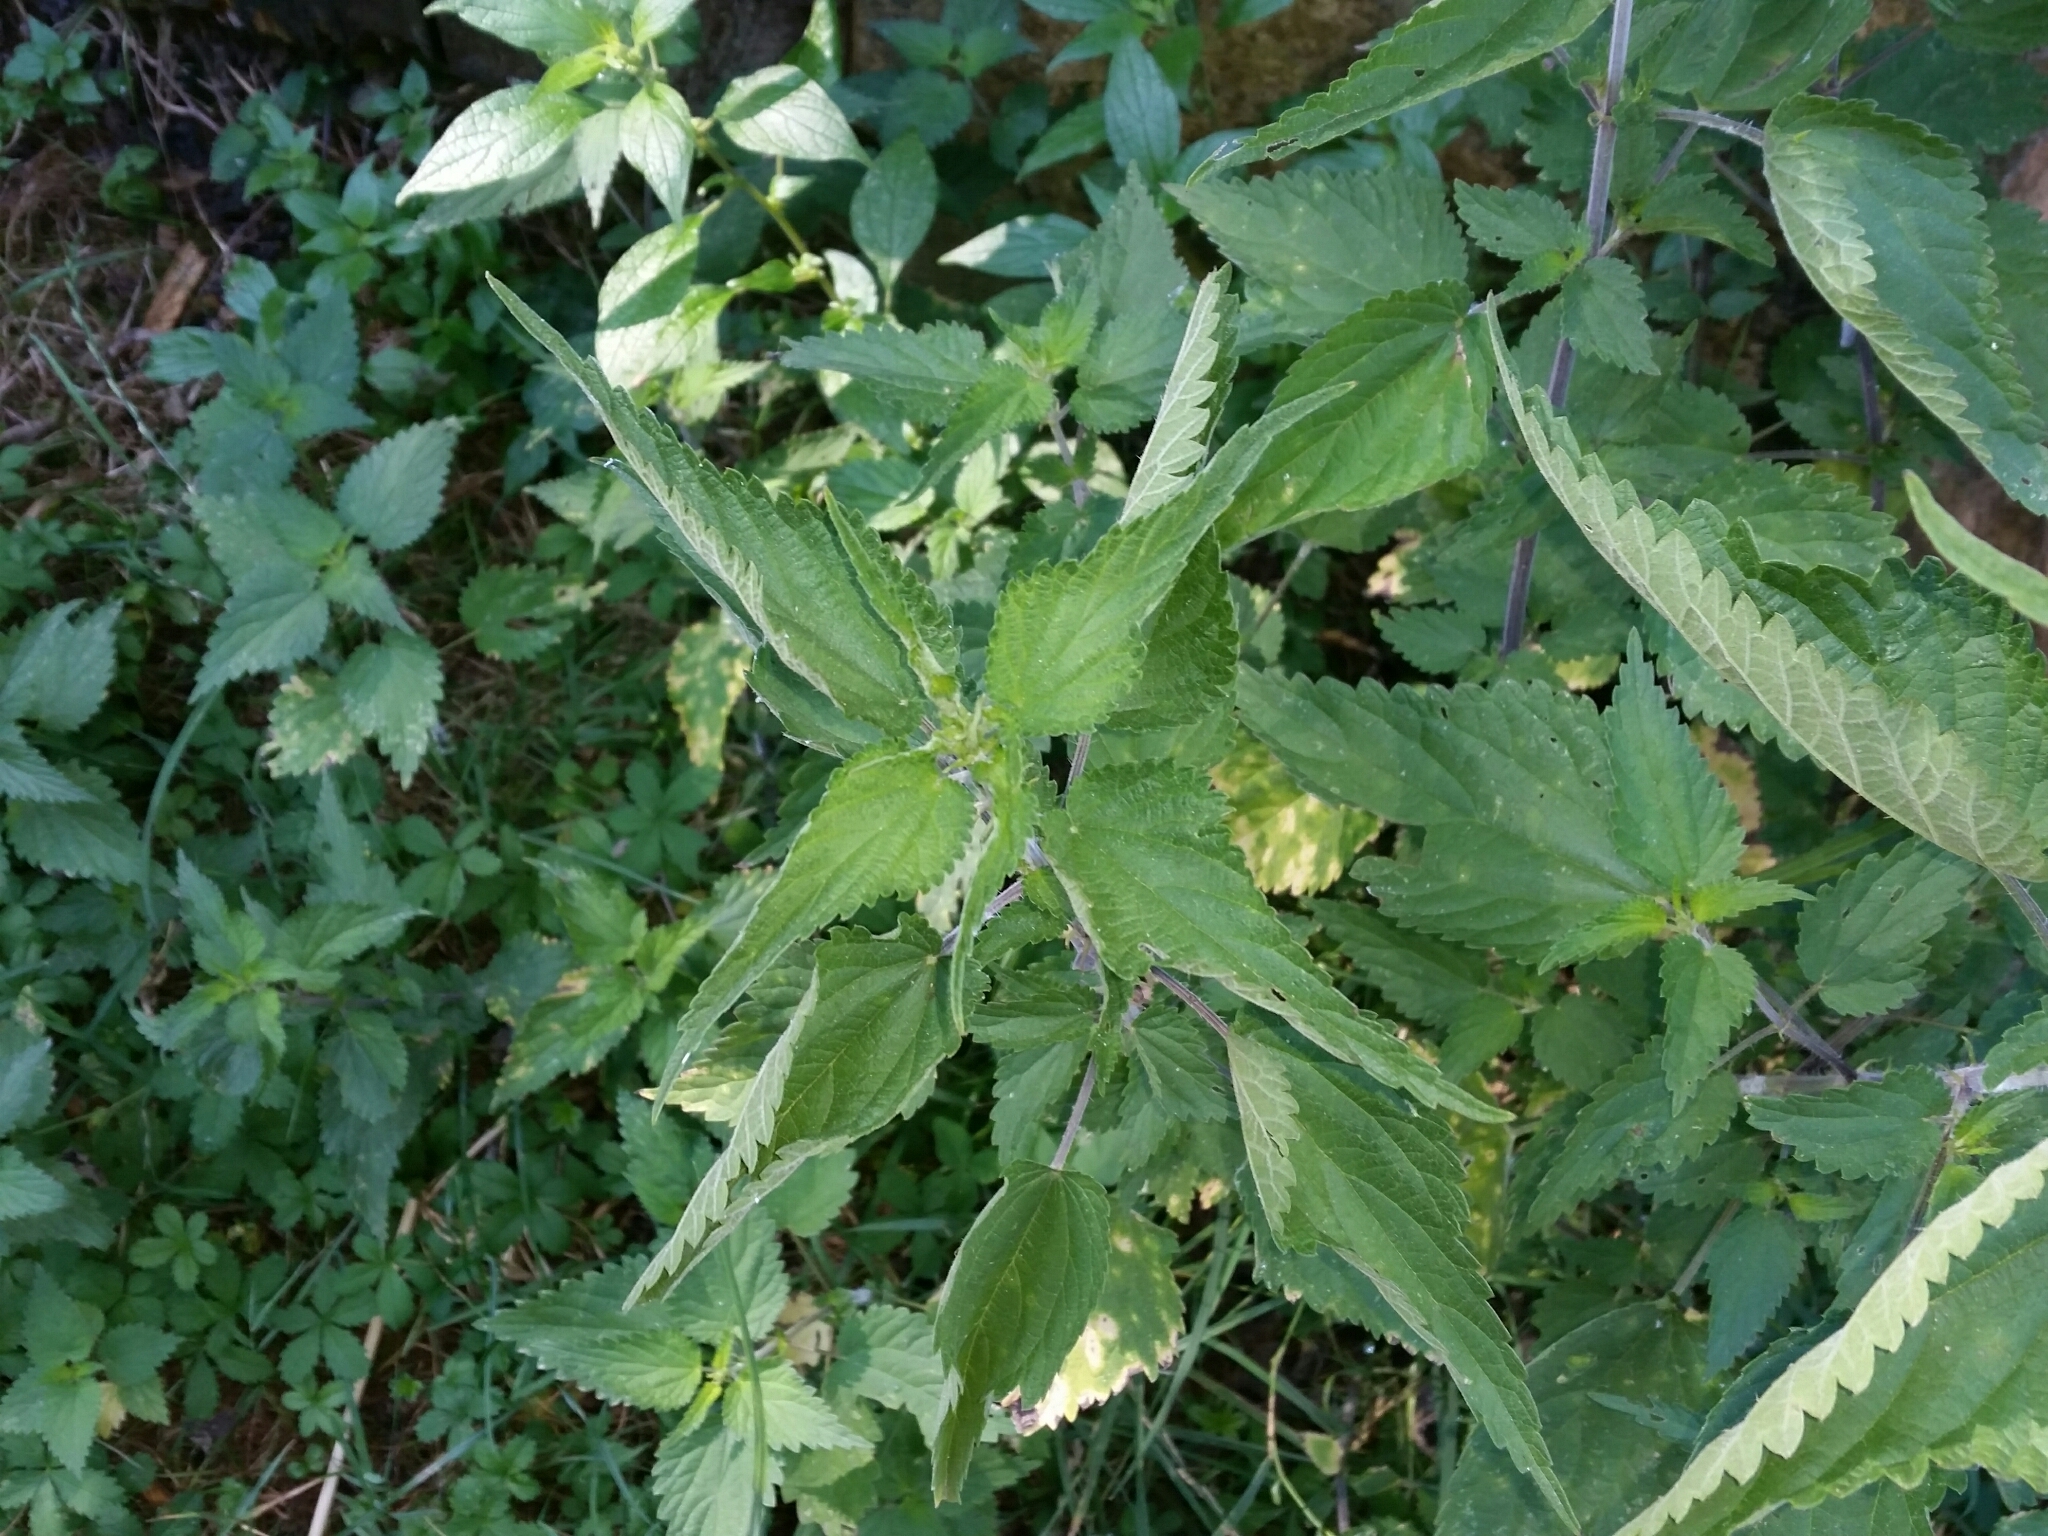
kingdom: Plantae
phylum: Tracheophyta
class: Magnoliopsida
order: Rosales
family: Urticaceae
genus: Urtica
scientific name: Urtica dioica
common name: Common nettle
